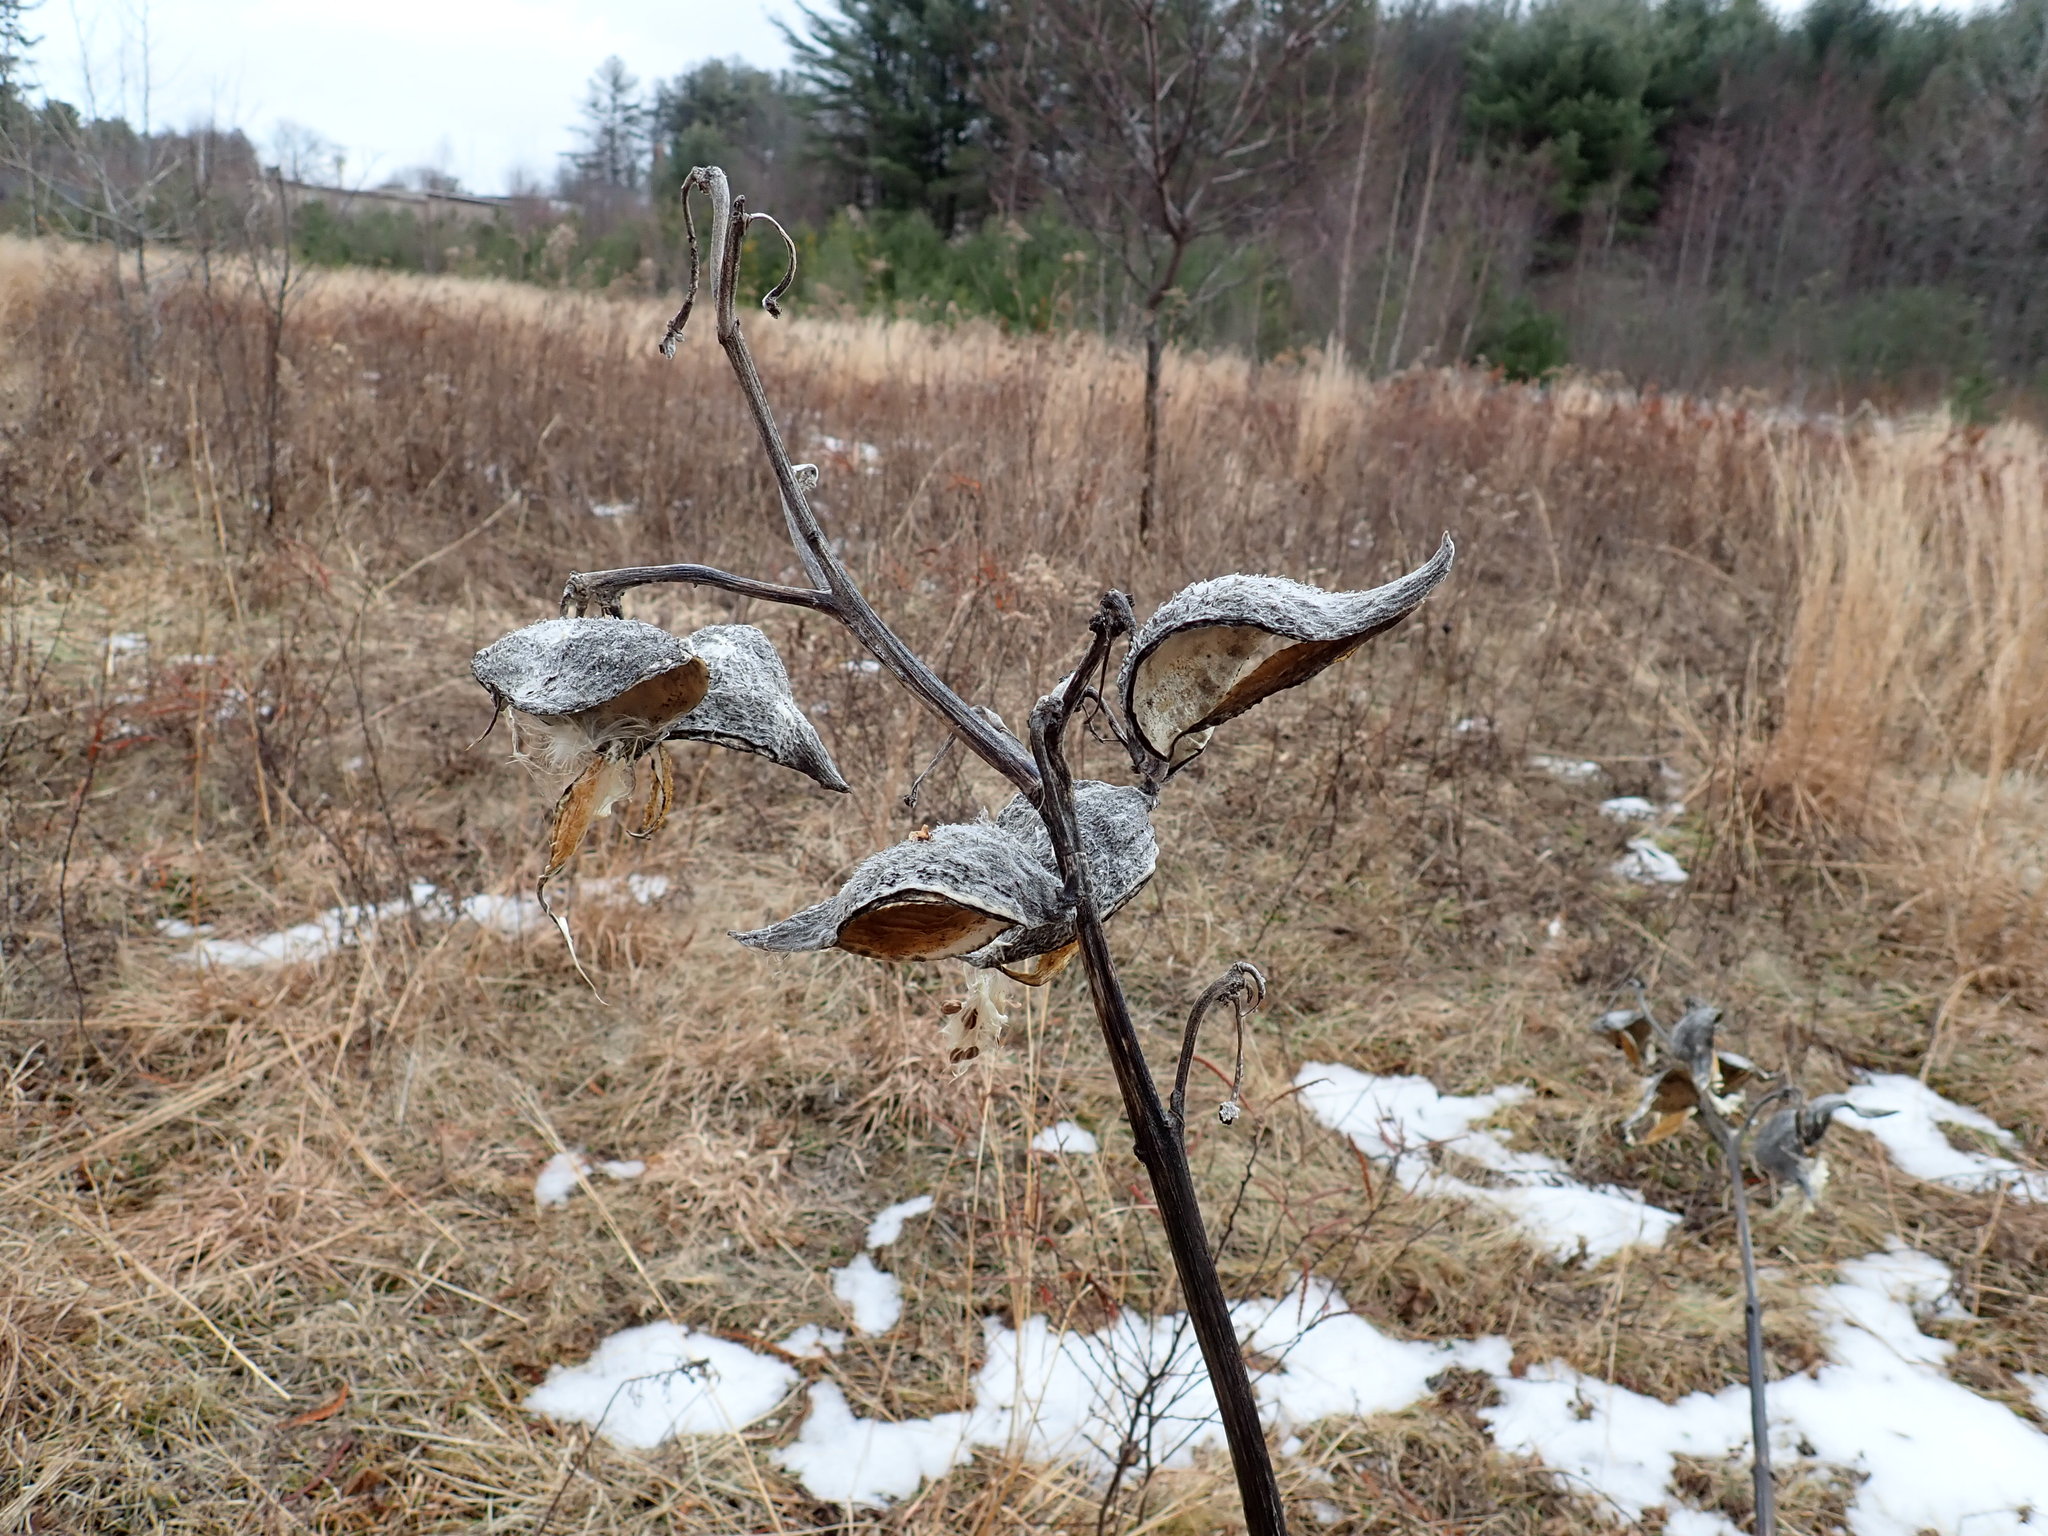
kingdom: Plantae
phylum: Tracheophyta
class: Magnoliopsida
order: Gentianales
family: Apocynaceae
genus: Asclepias
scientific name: Asclepias syriaca
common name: Common milkweed
